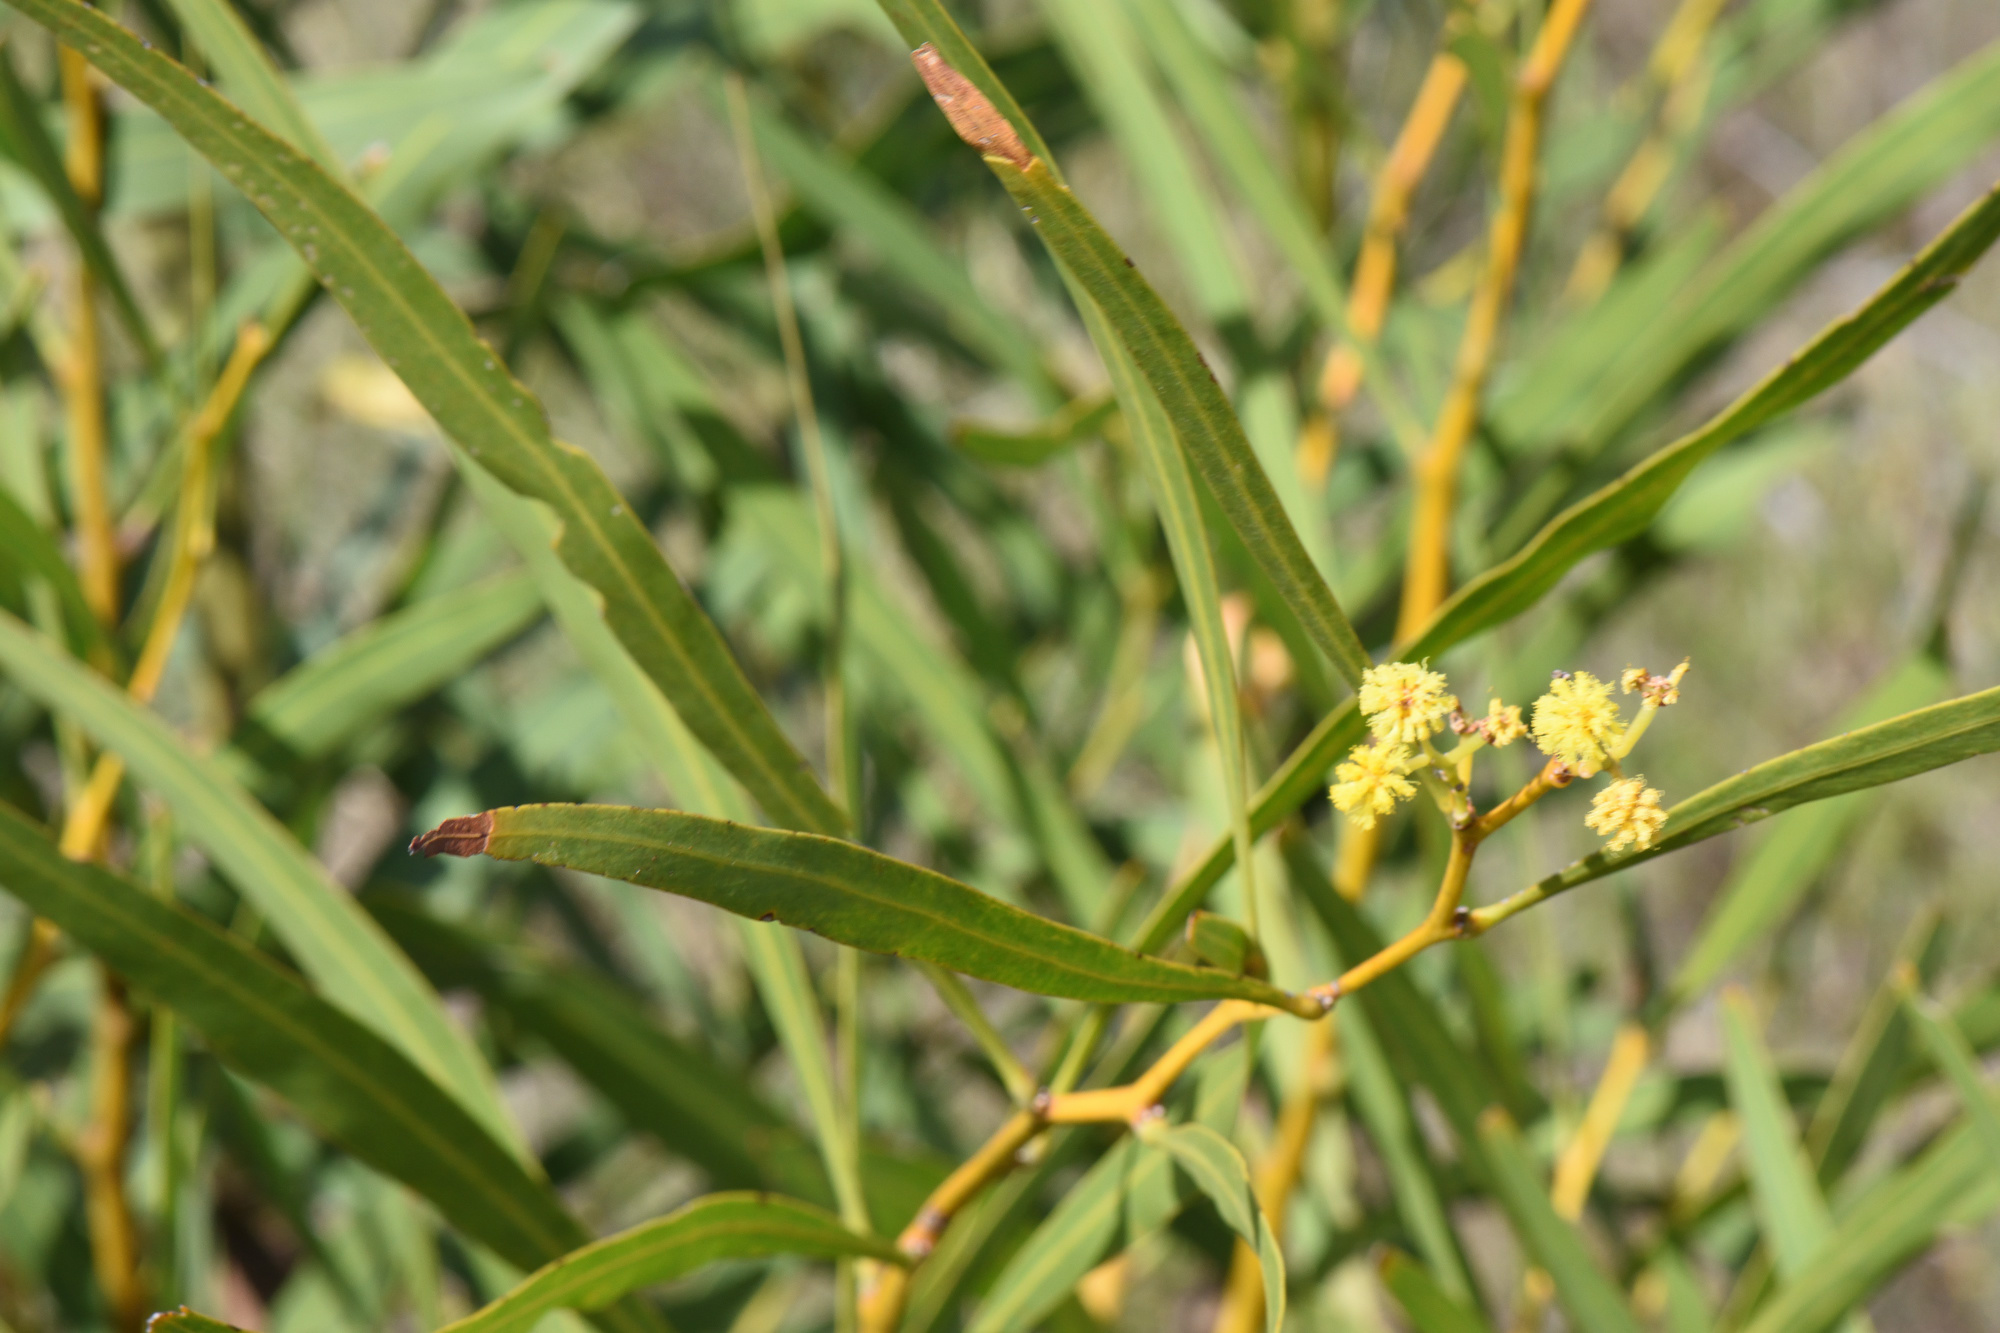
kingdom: Plantae
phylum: Tracheophyta
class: Magnoliopsida
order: Fabales
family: Fabaceae
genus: Acacia
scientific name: Acacia saligna
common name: Orange wattle
